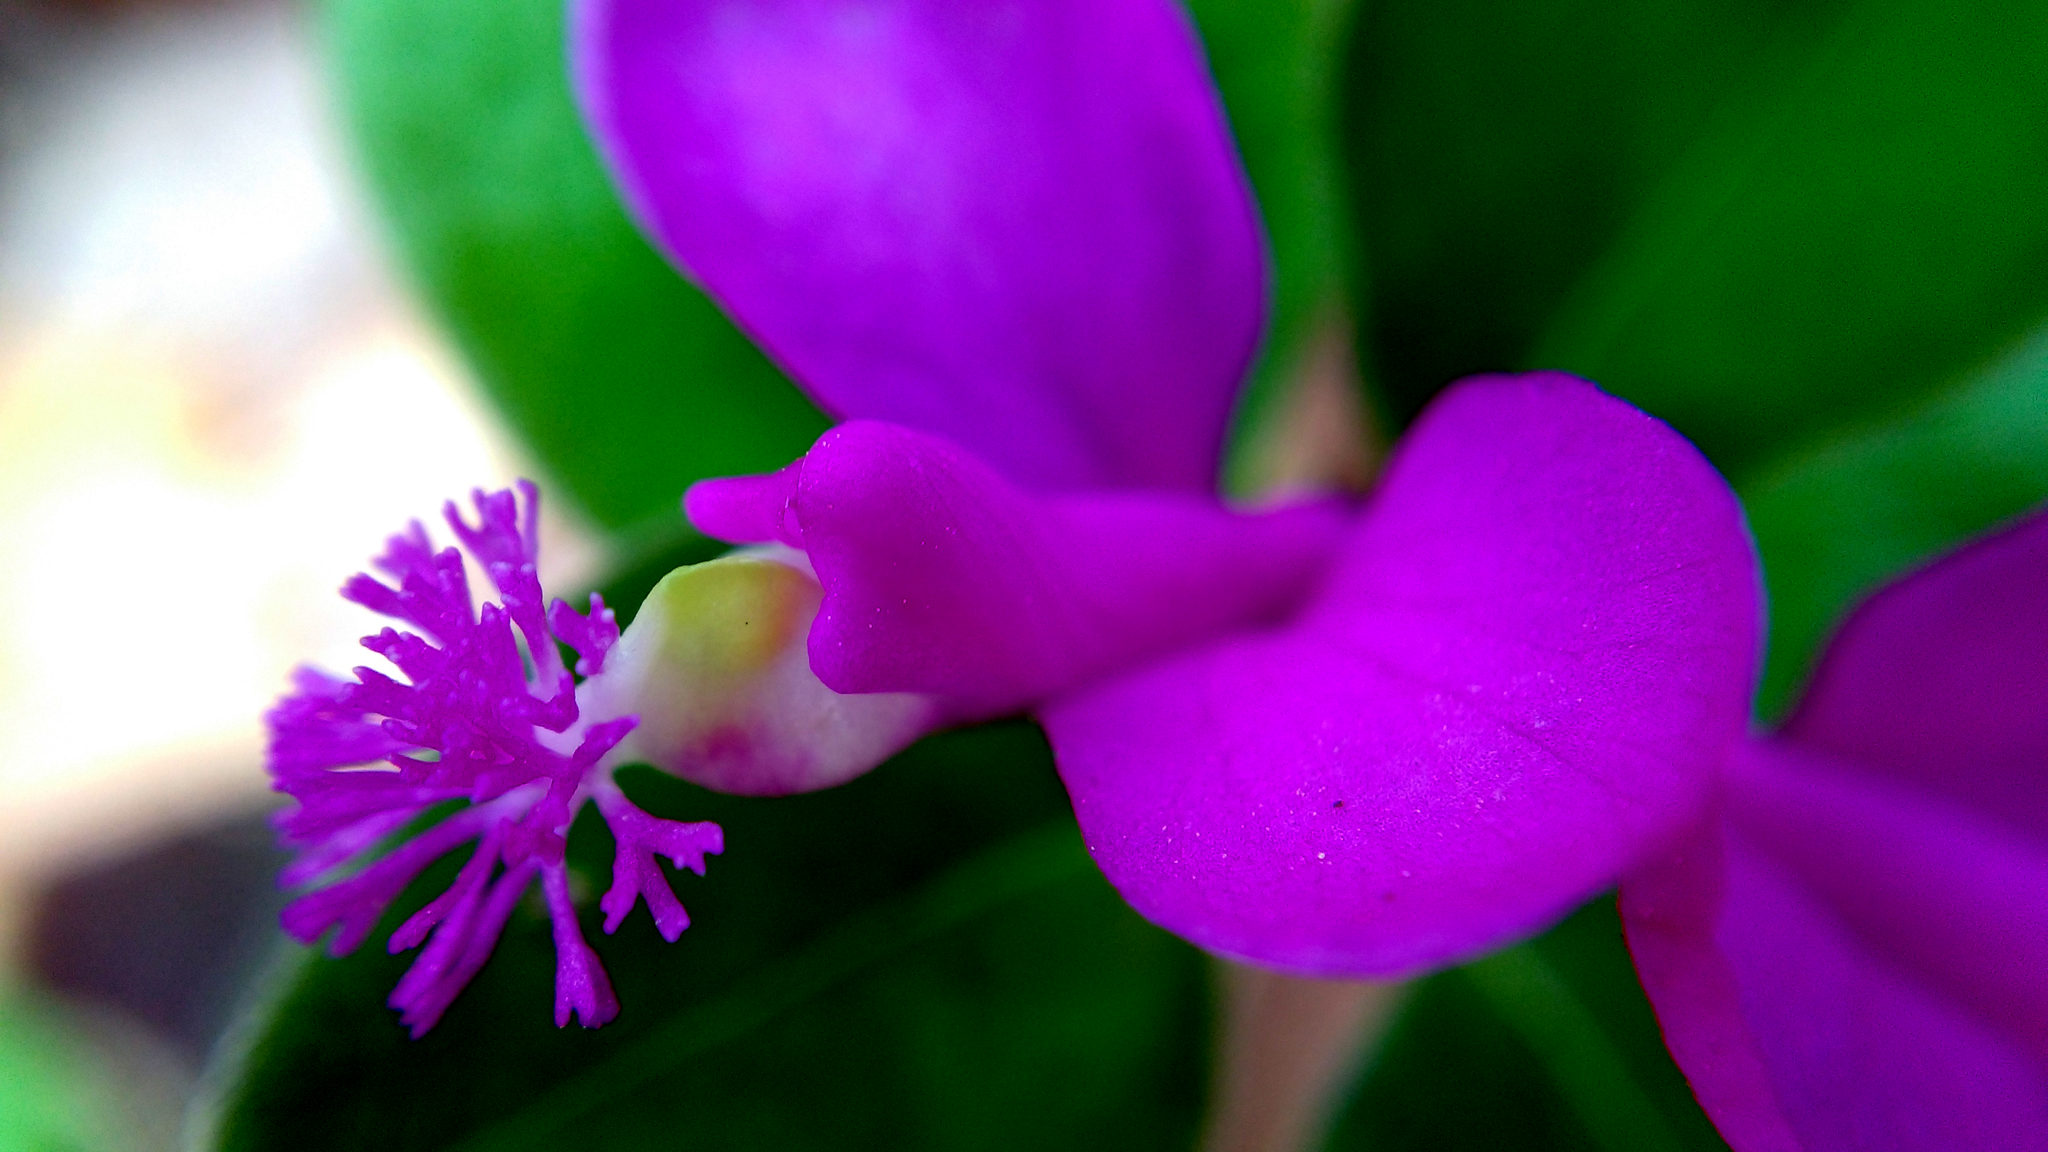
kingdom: Plantae
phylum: Tracheophyta
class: Magnoliopsida
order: Fabales
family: Polygalaceae
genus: Polygaloides
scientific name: Polygaloides paucifolia
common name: Bird-on-the-wing
